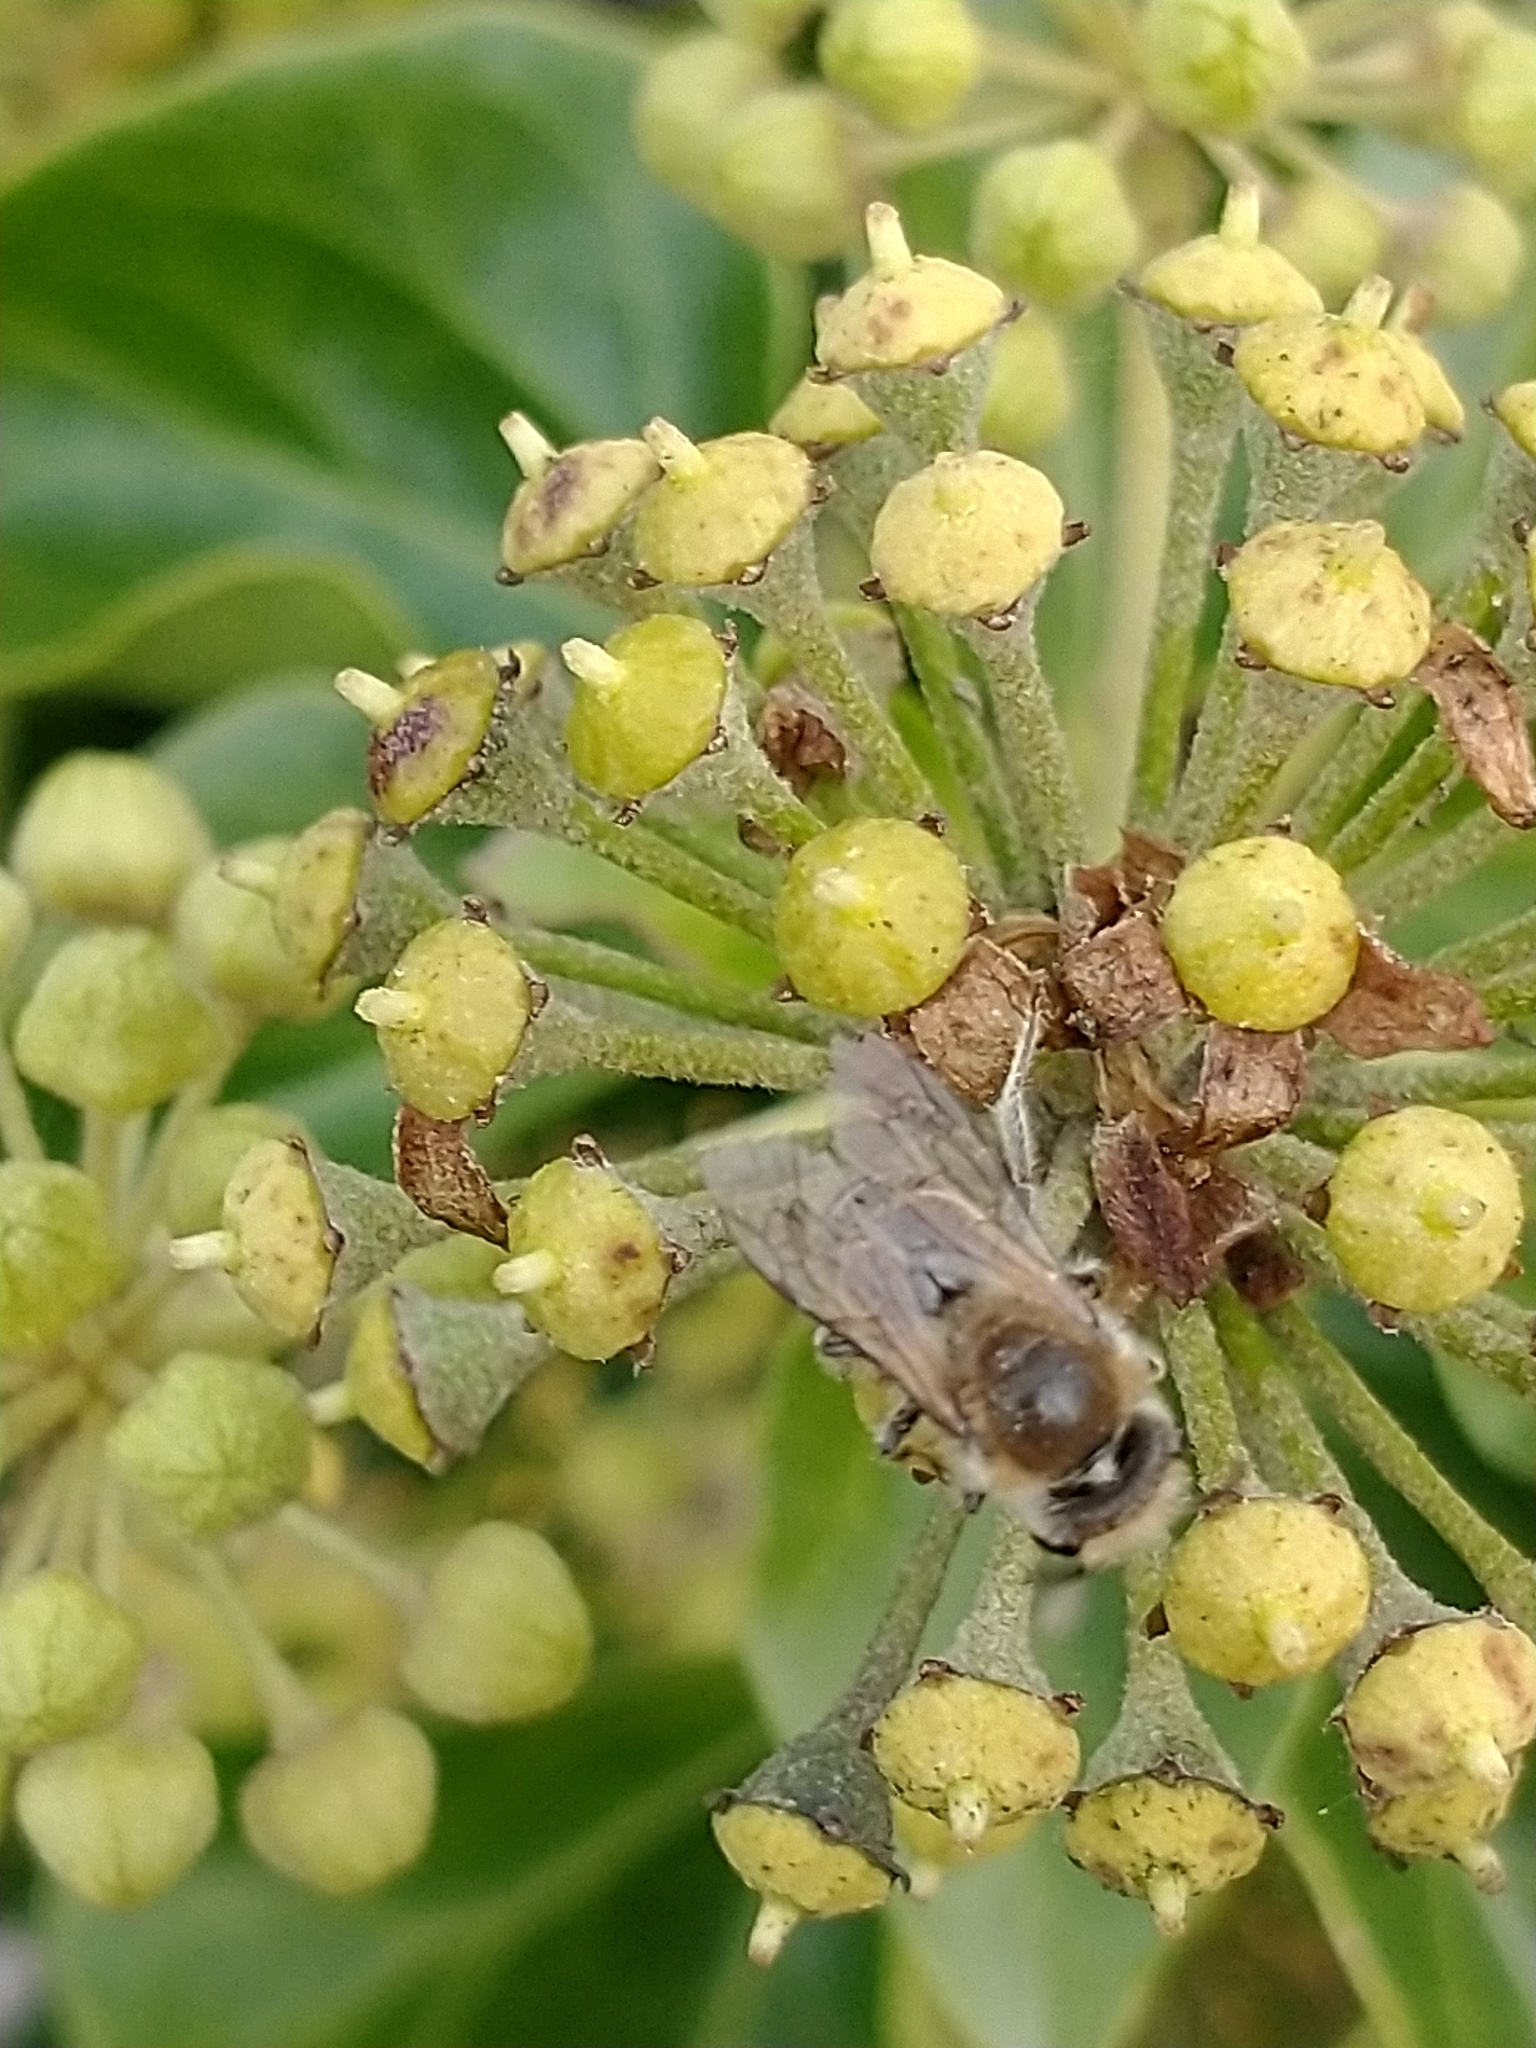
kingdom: Animalia
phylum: Arthropoda
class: Insecta
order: Hymenoptera
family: Colletidae
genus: Colletes
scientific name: Colletes hederae
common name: Ivy bee
